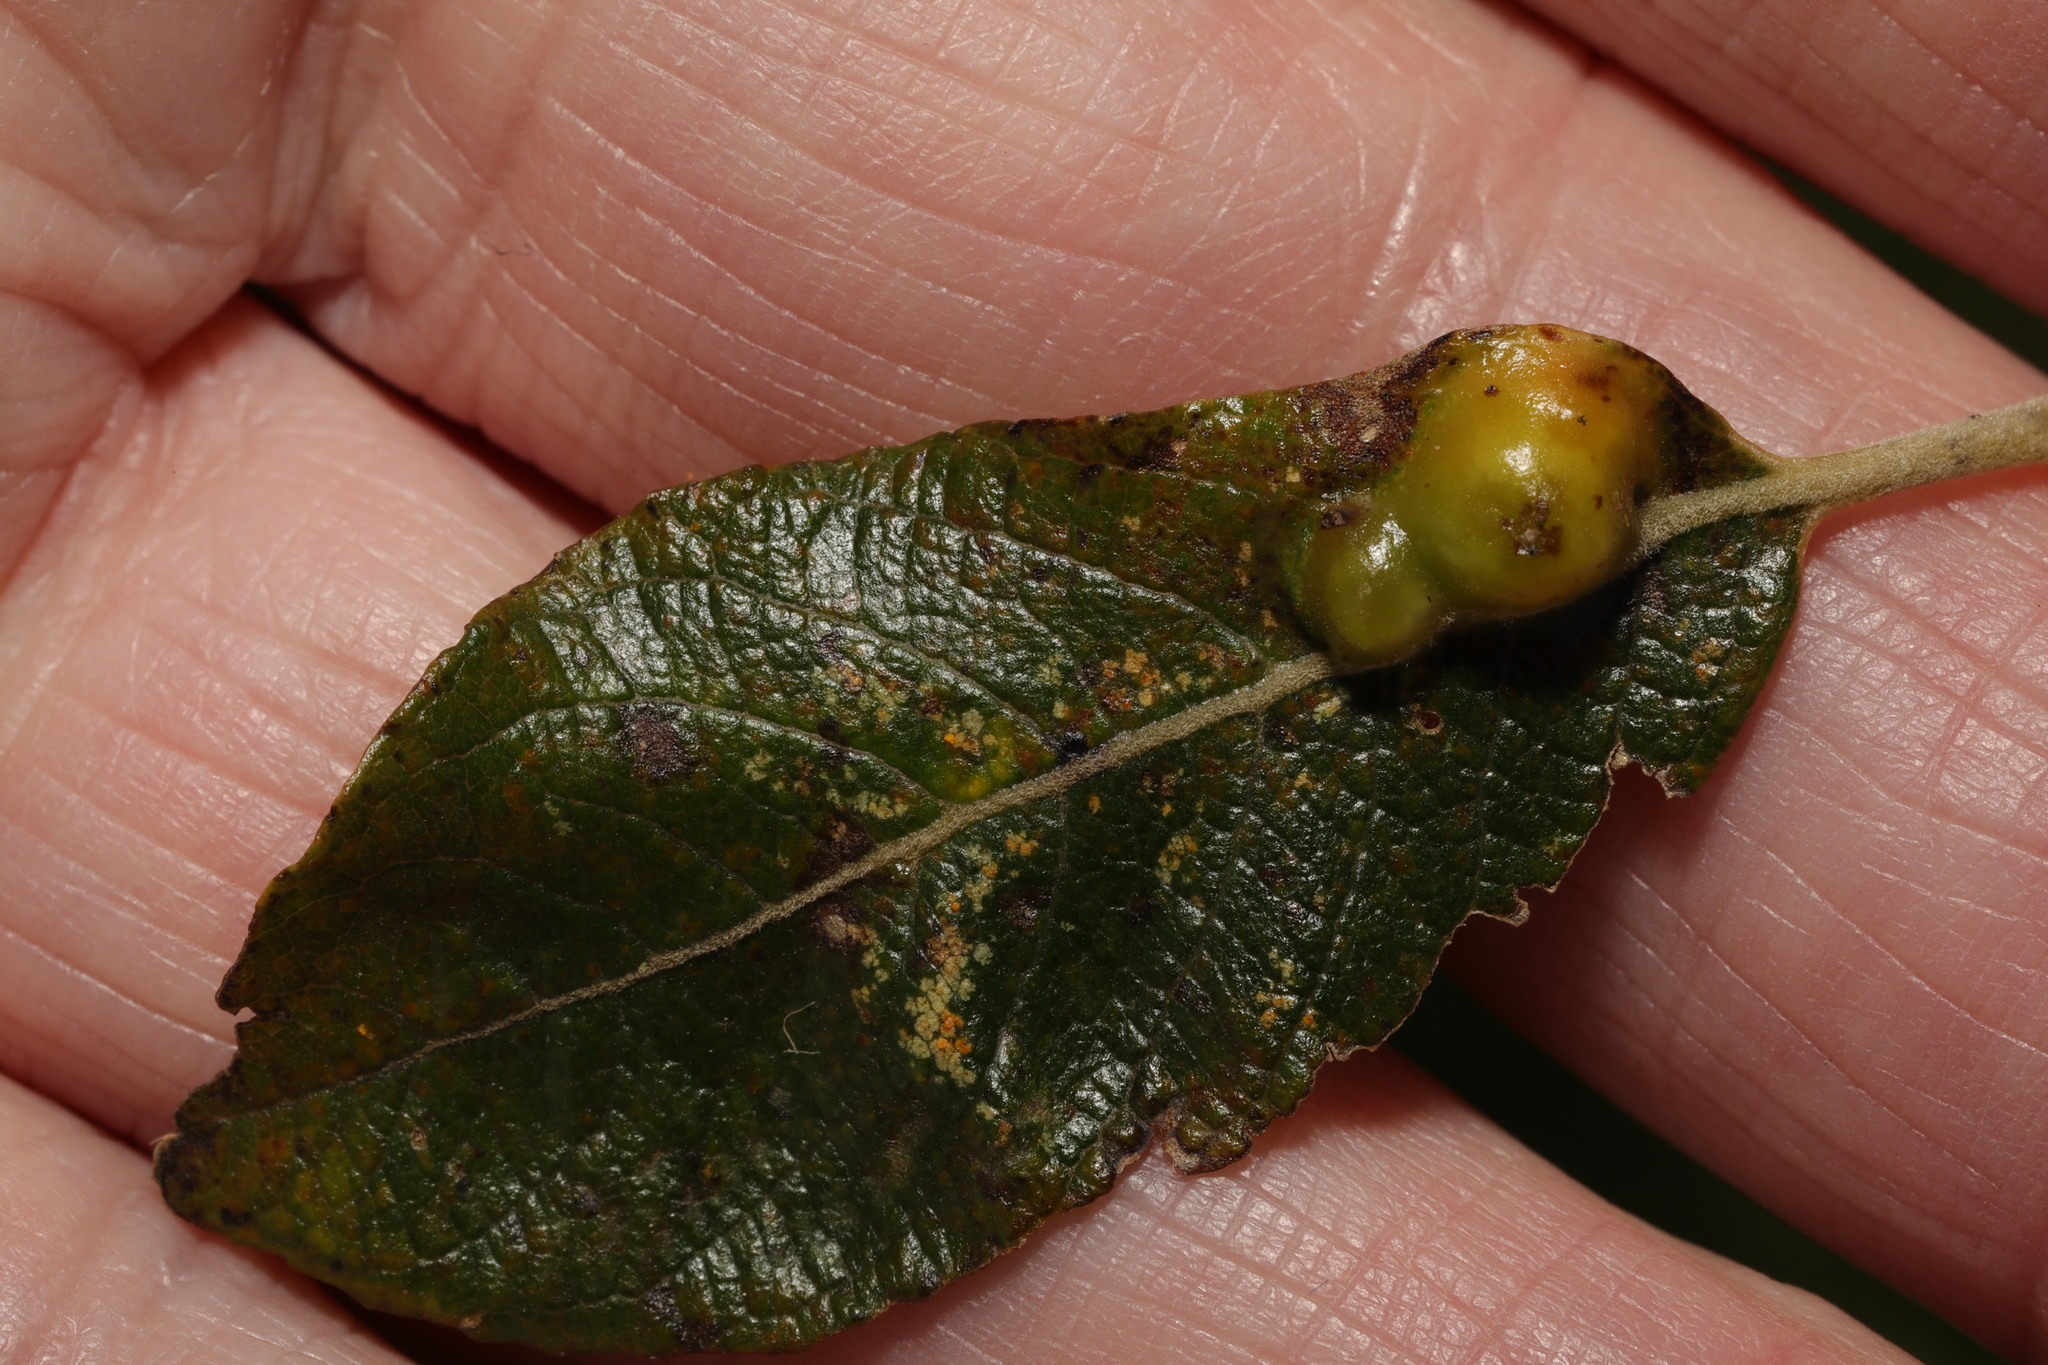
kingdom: Animalia
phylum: Arthropoda
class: Insecta
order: Diptera
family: Cecidomyiidae
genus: Iteomyia
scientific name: Iteomyia major
